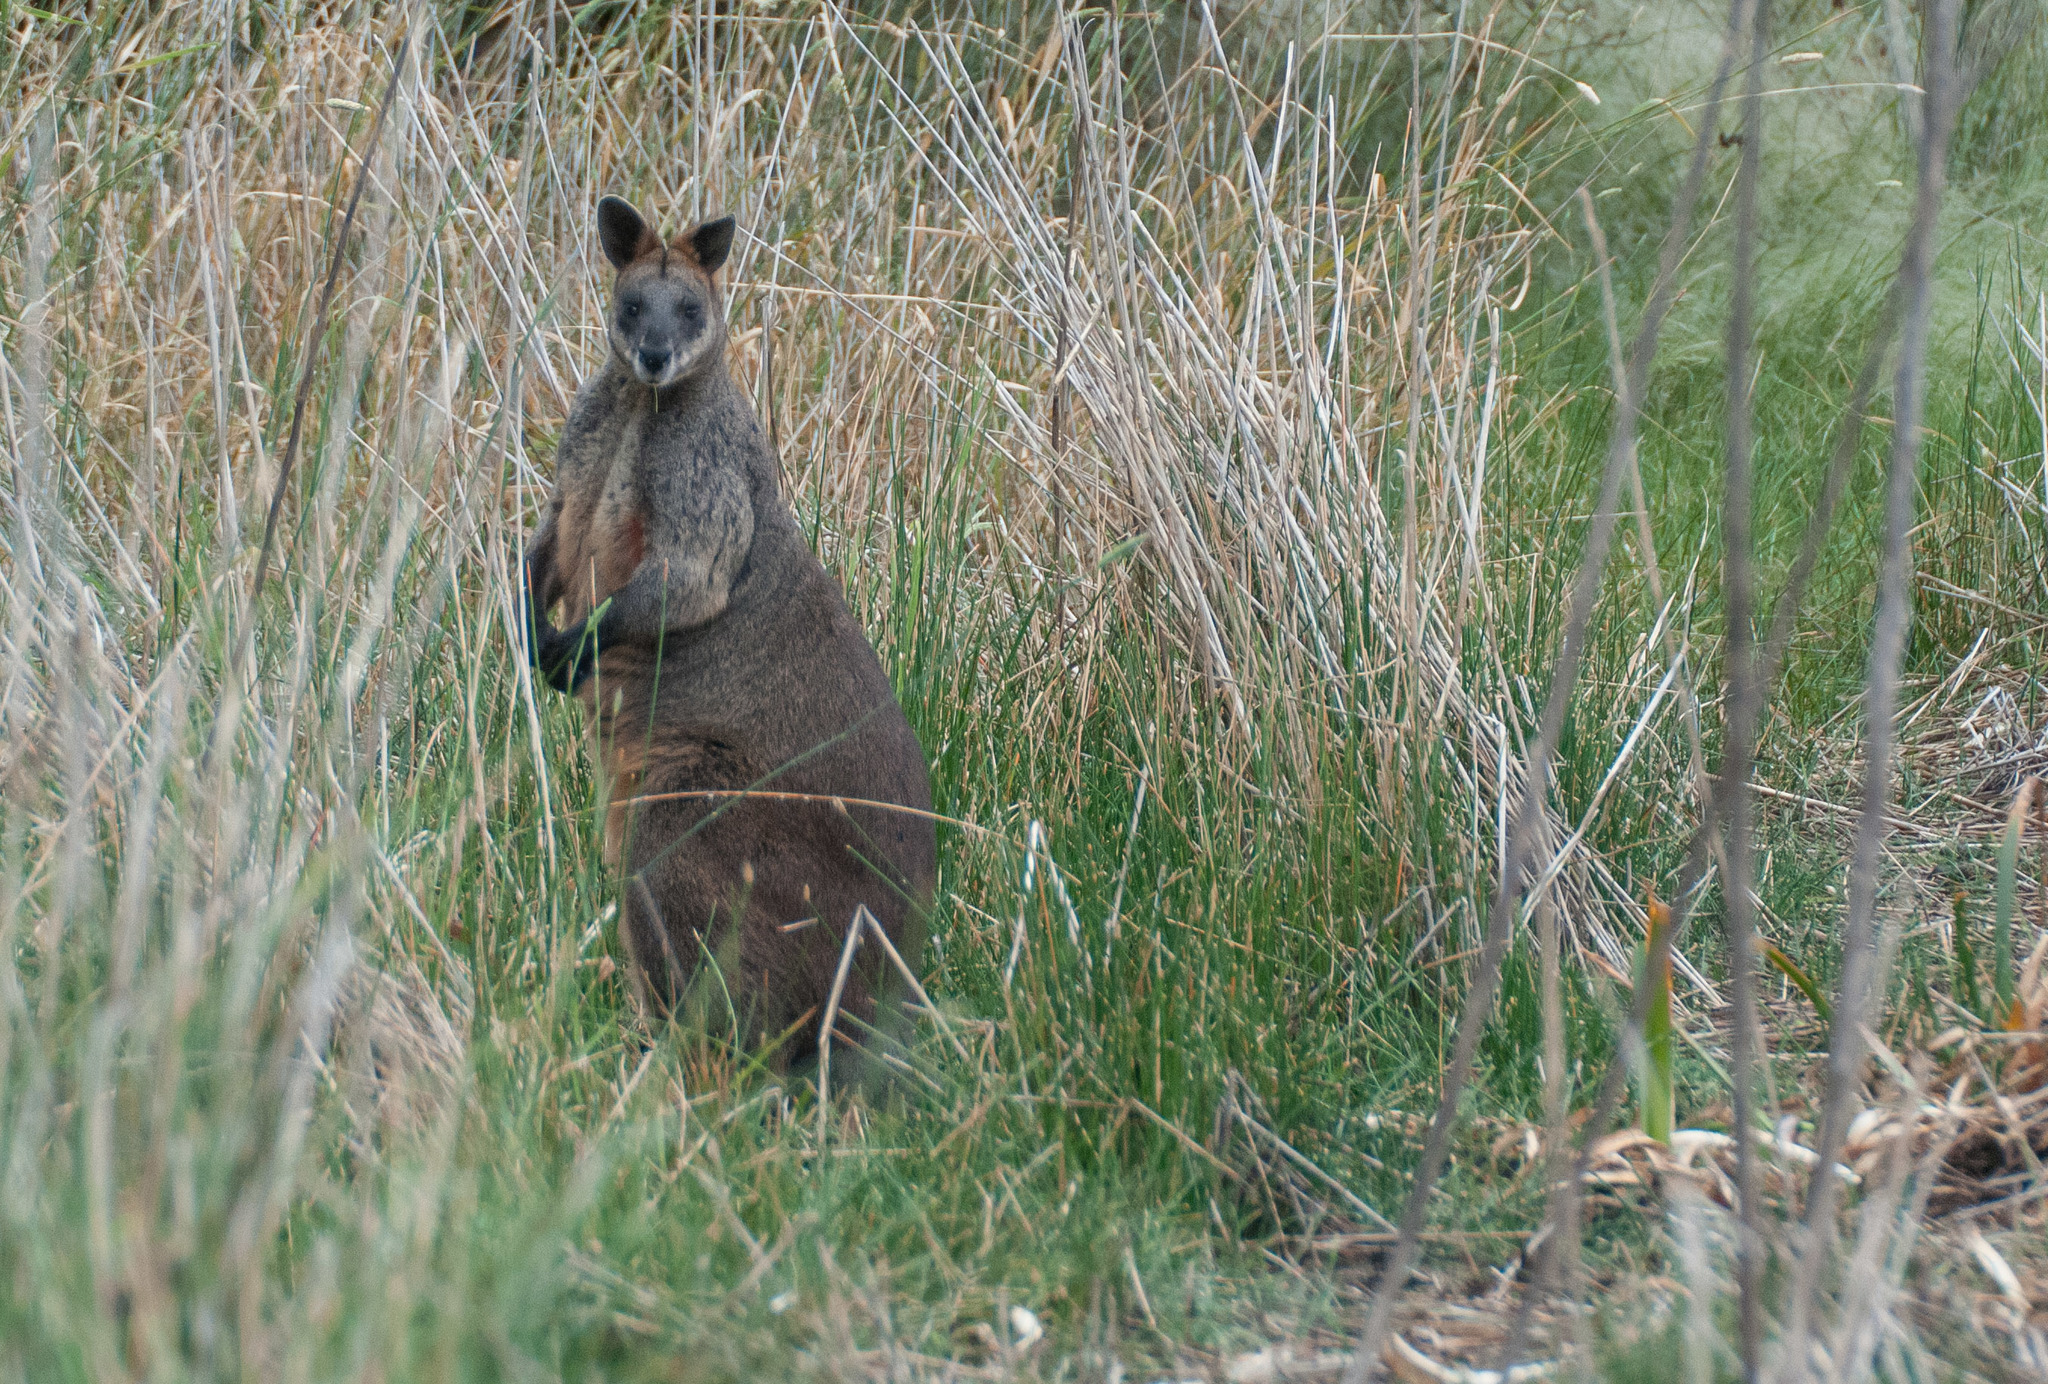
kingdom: Animalia
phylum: Chordata
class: Mammalia
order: Diprotodontia
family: Macropodidae
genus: Wallabia
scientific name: Wallabia bicolor
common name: Swamp wallaby
